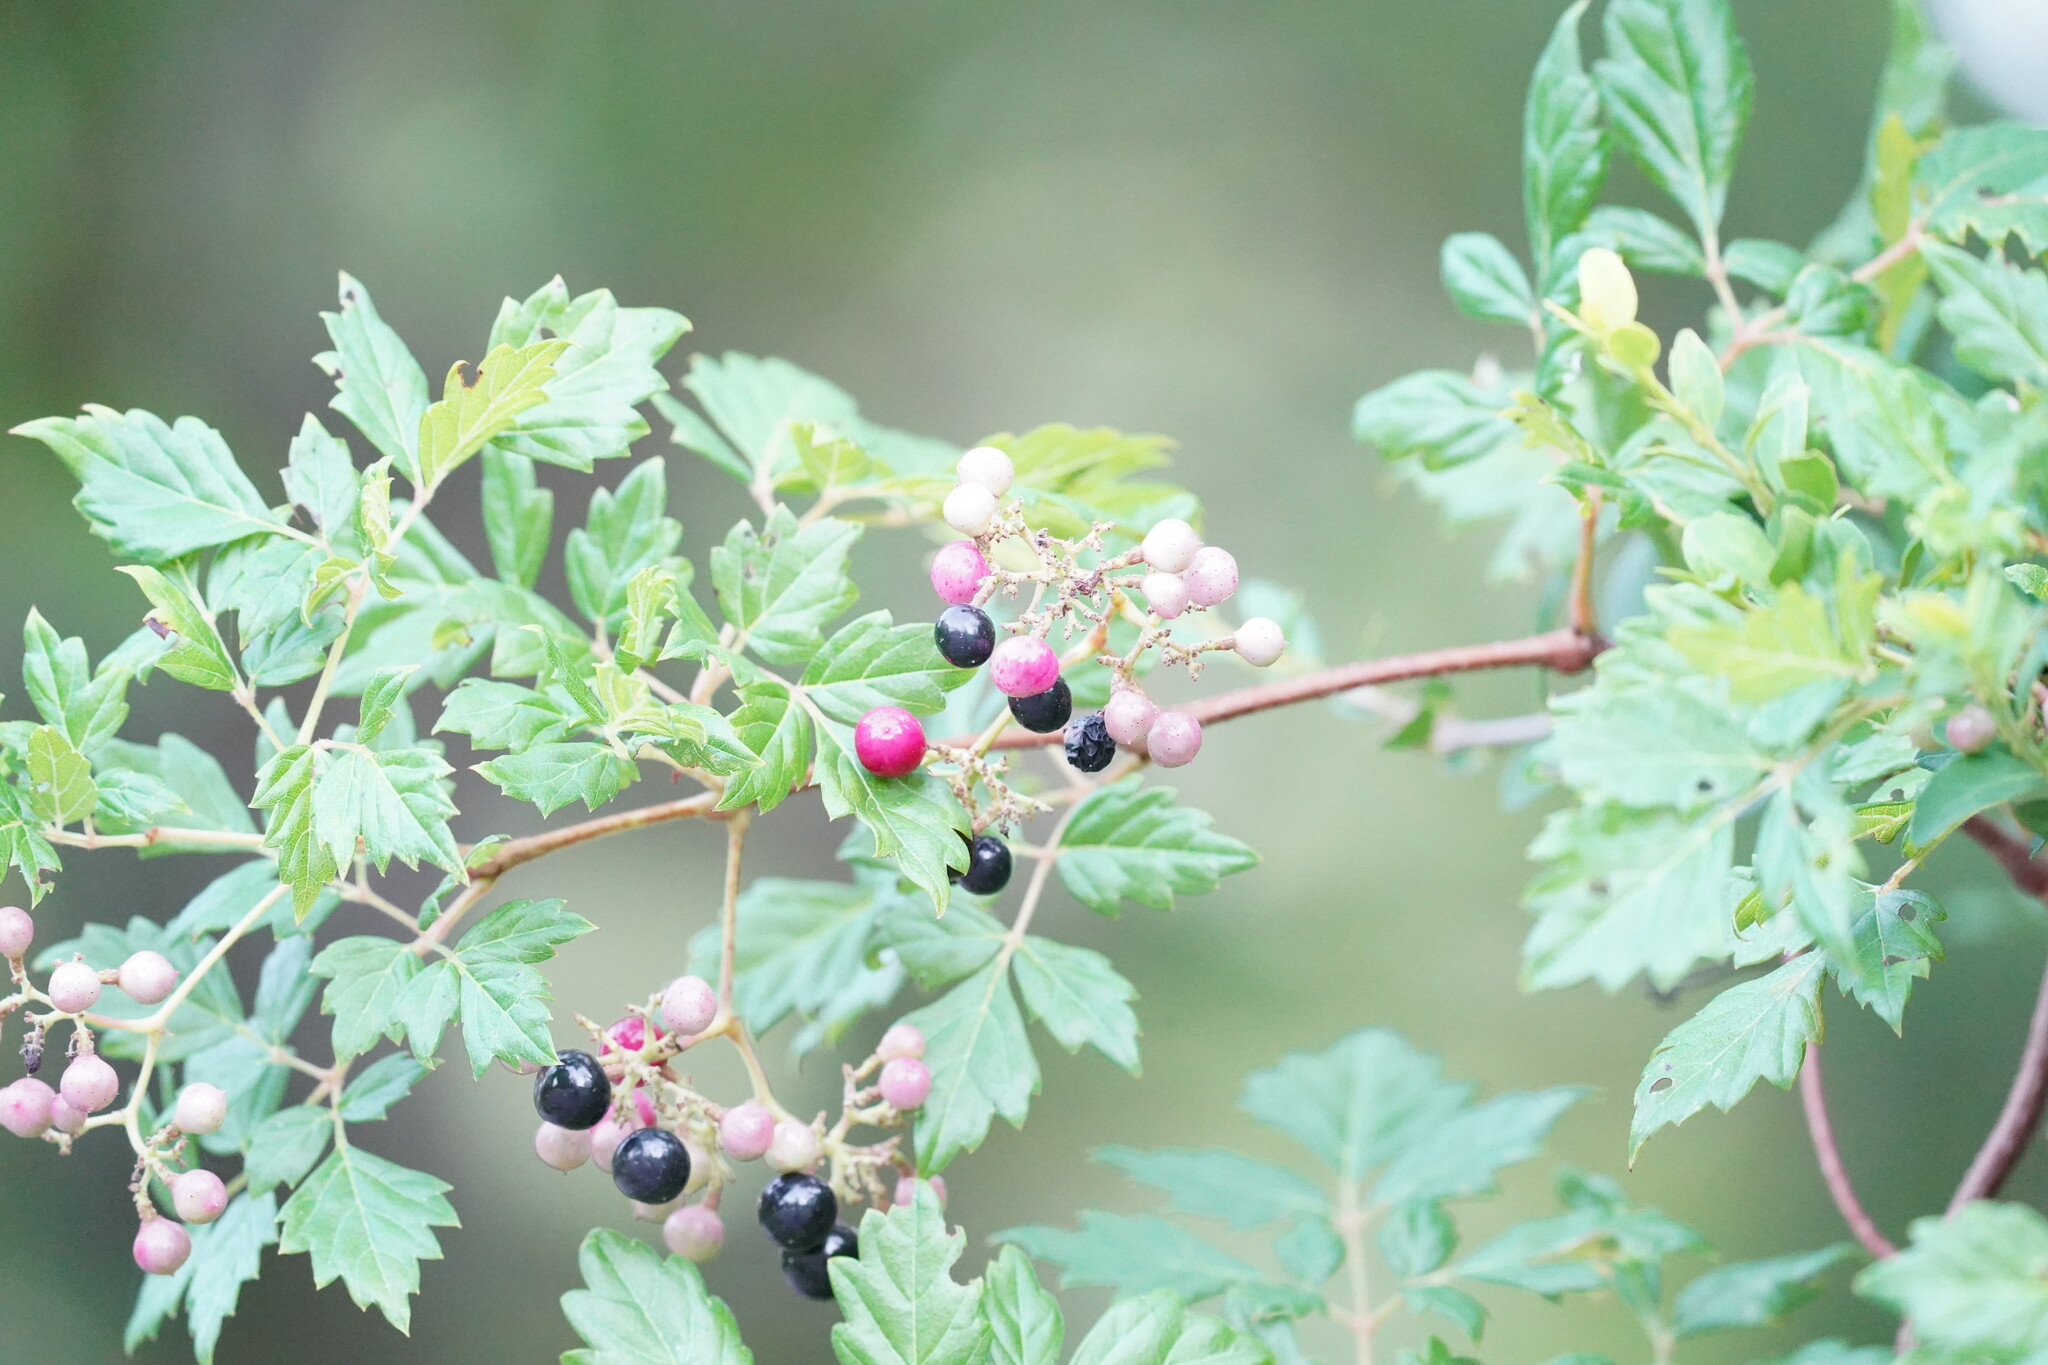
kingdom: Plantae
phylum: Tracheophyta
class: Magnoliopsida
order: Vitales
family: Vitaceae
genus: Nekemias
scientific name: Nekemias arborea
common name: Peppervine
